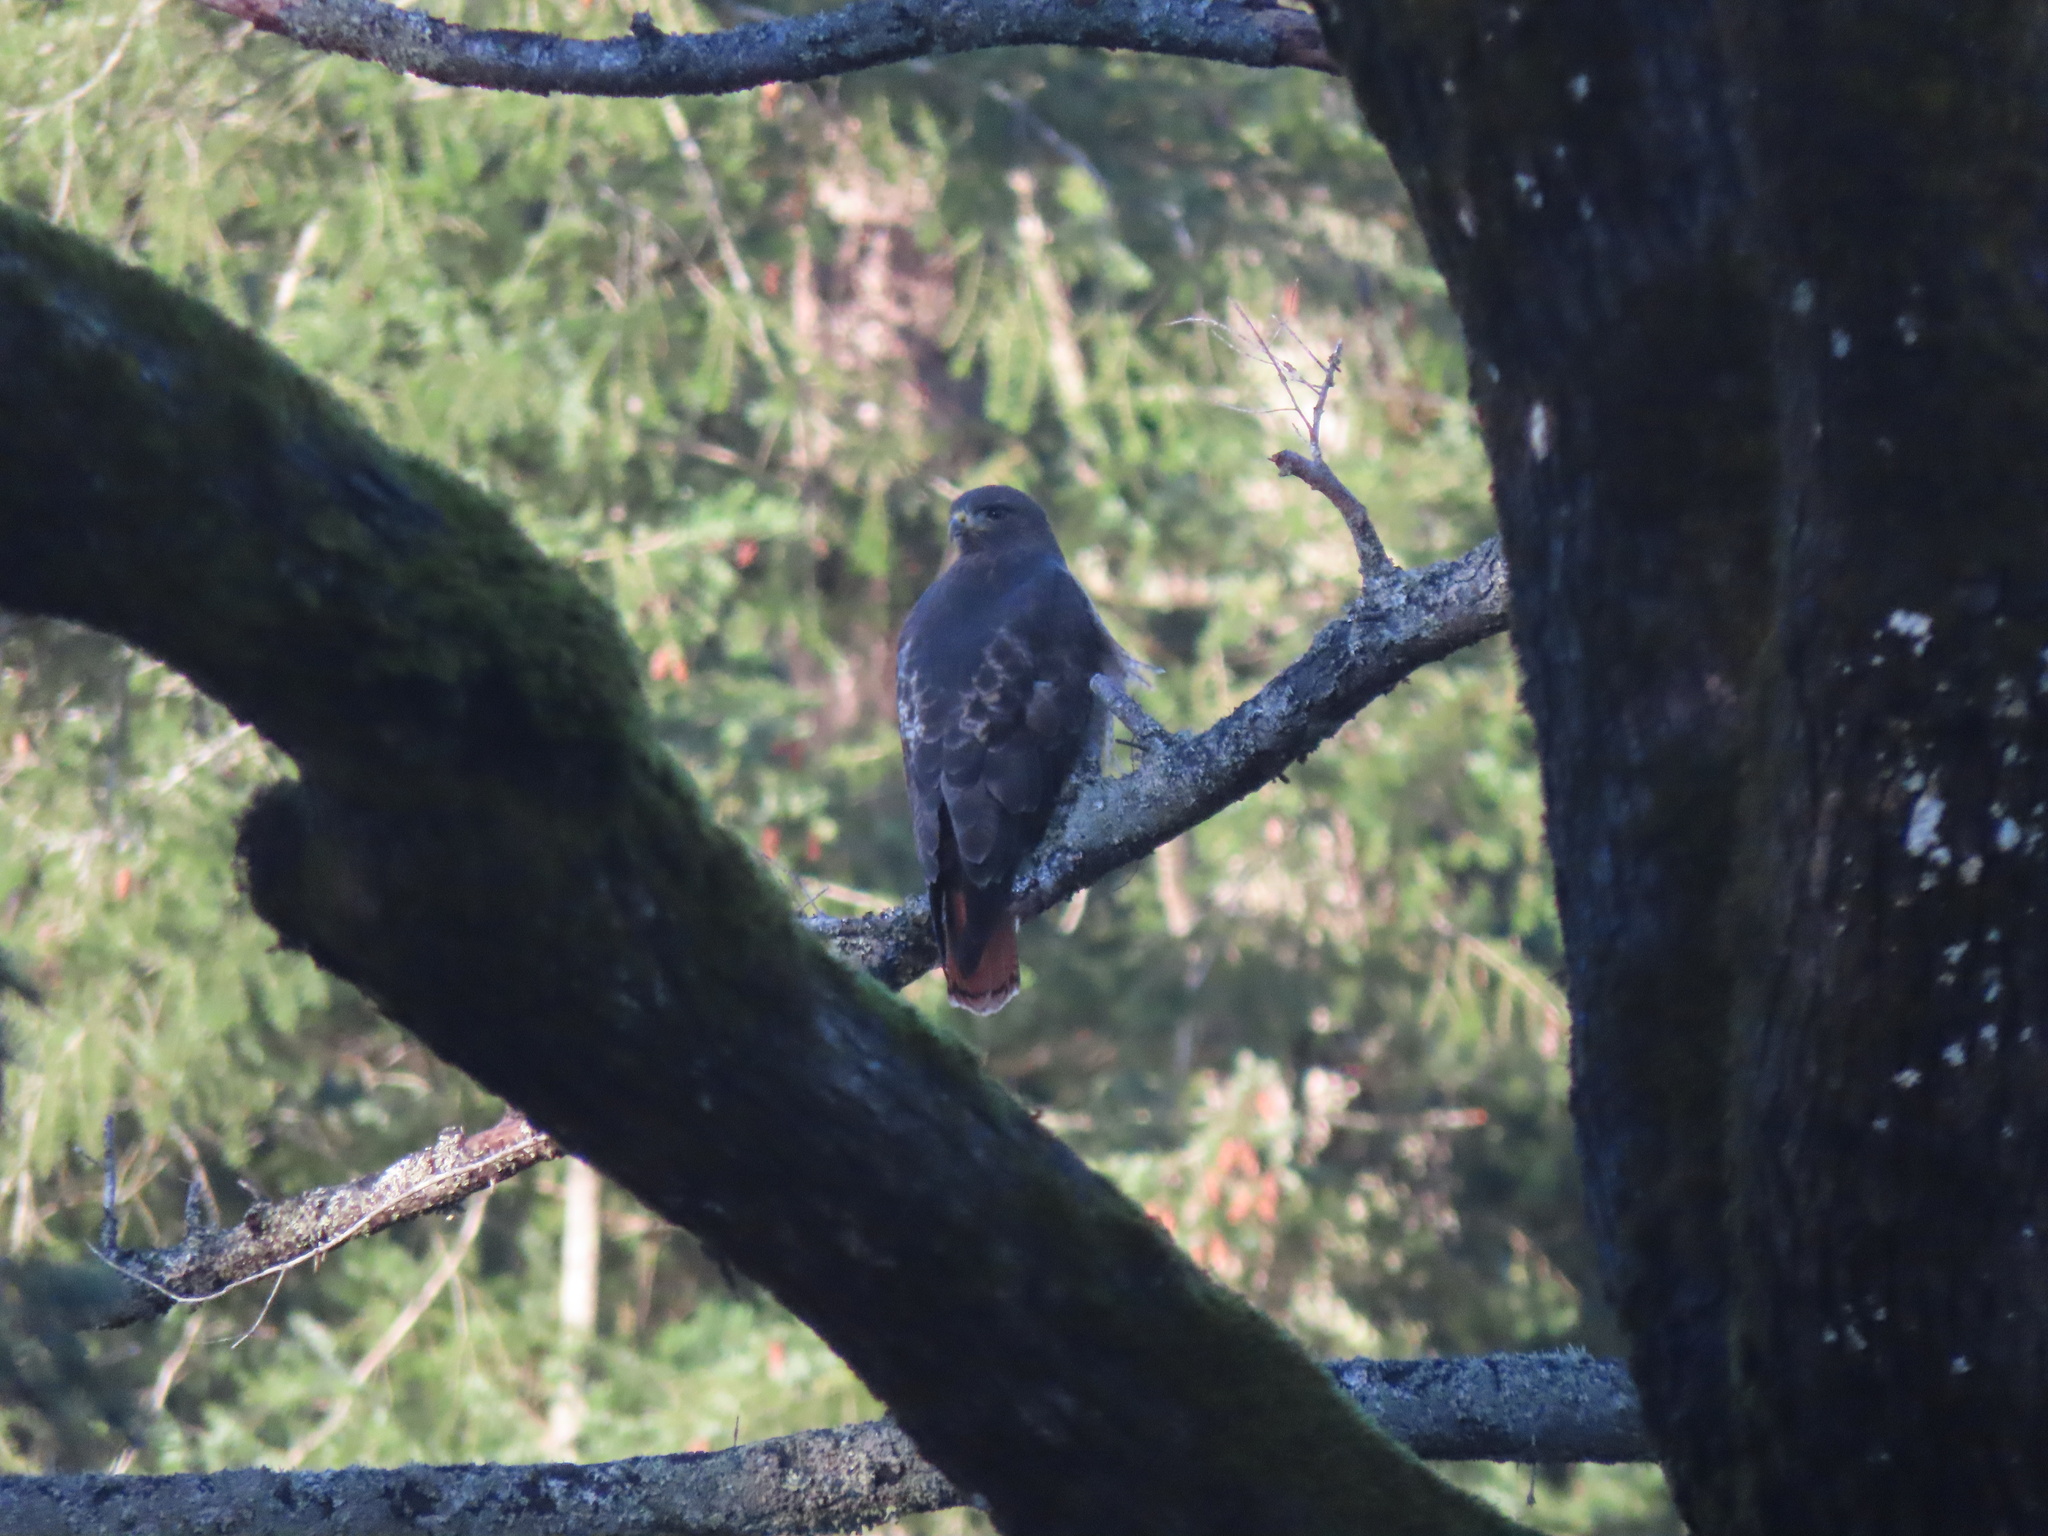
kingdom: Animalia
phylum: Chordata
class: Aves
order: Accipitriformes
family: Accipitridae
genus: Buteo
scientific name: Buteo jamaicensis
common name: Red-tailed hawk
